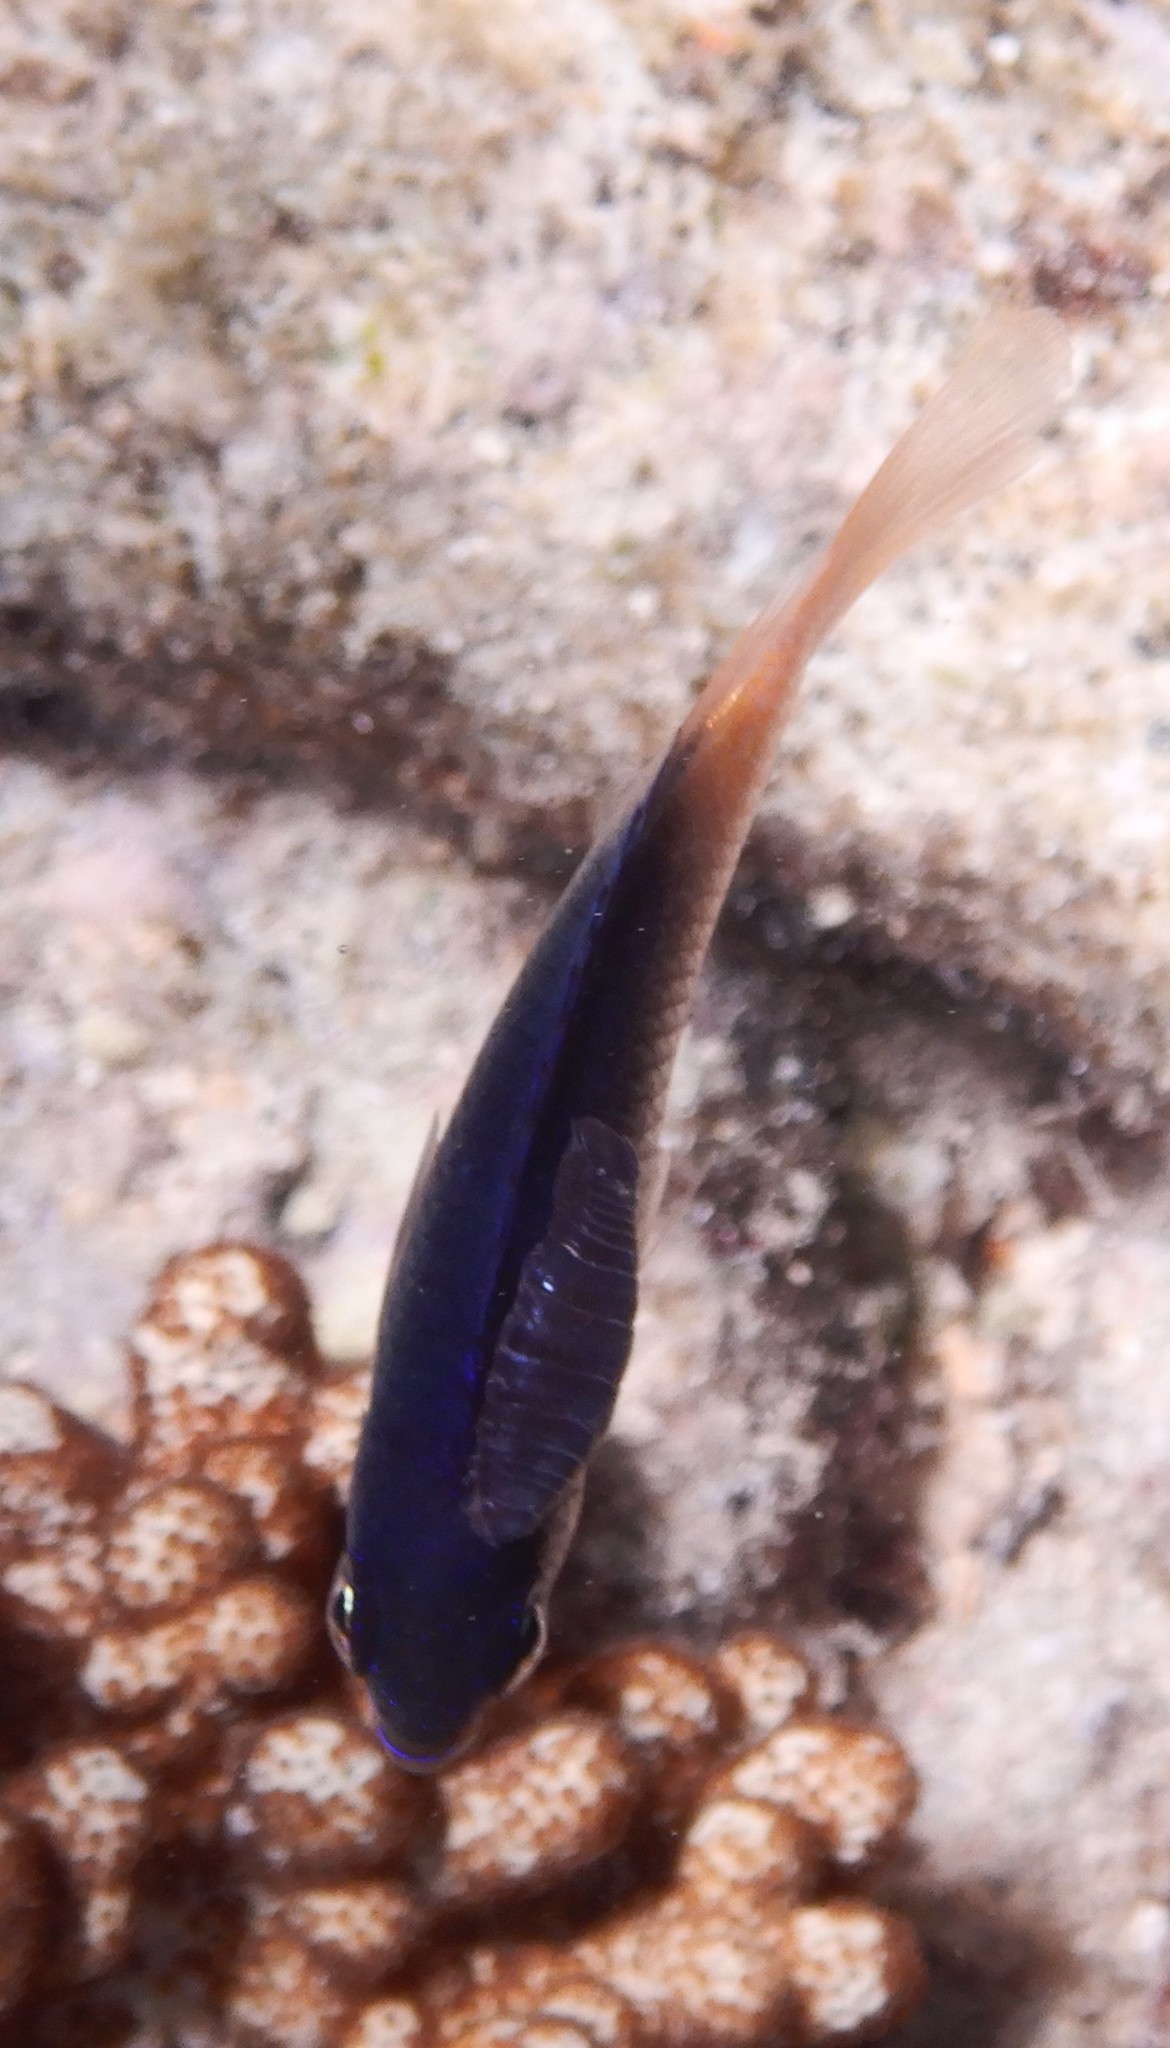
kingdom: Animalia
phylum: Chordata
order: Perciformes
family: Pomacentridae
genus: Chrysiptera
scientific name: Chrysiptera caesifrons
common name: Greyback damsel
